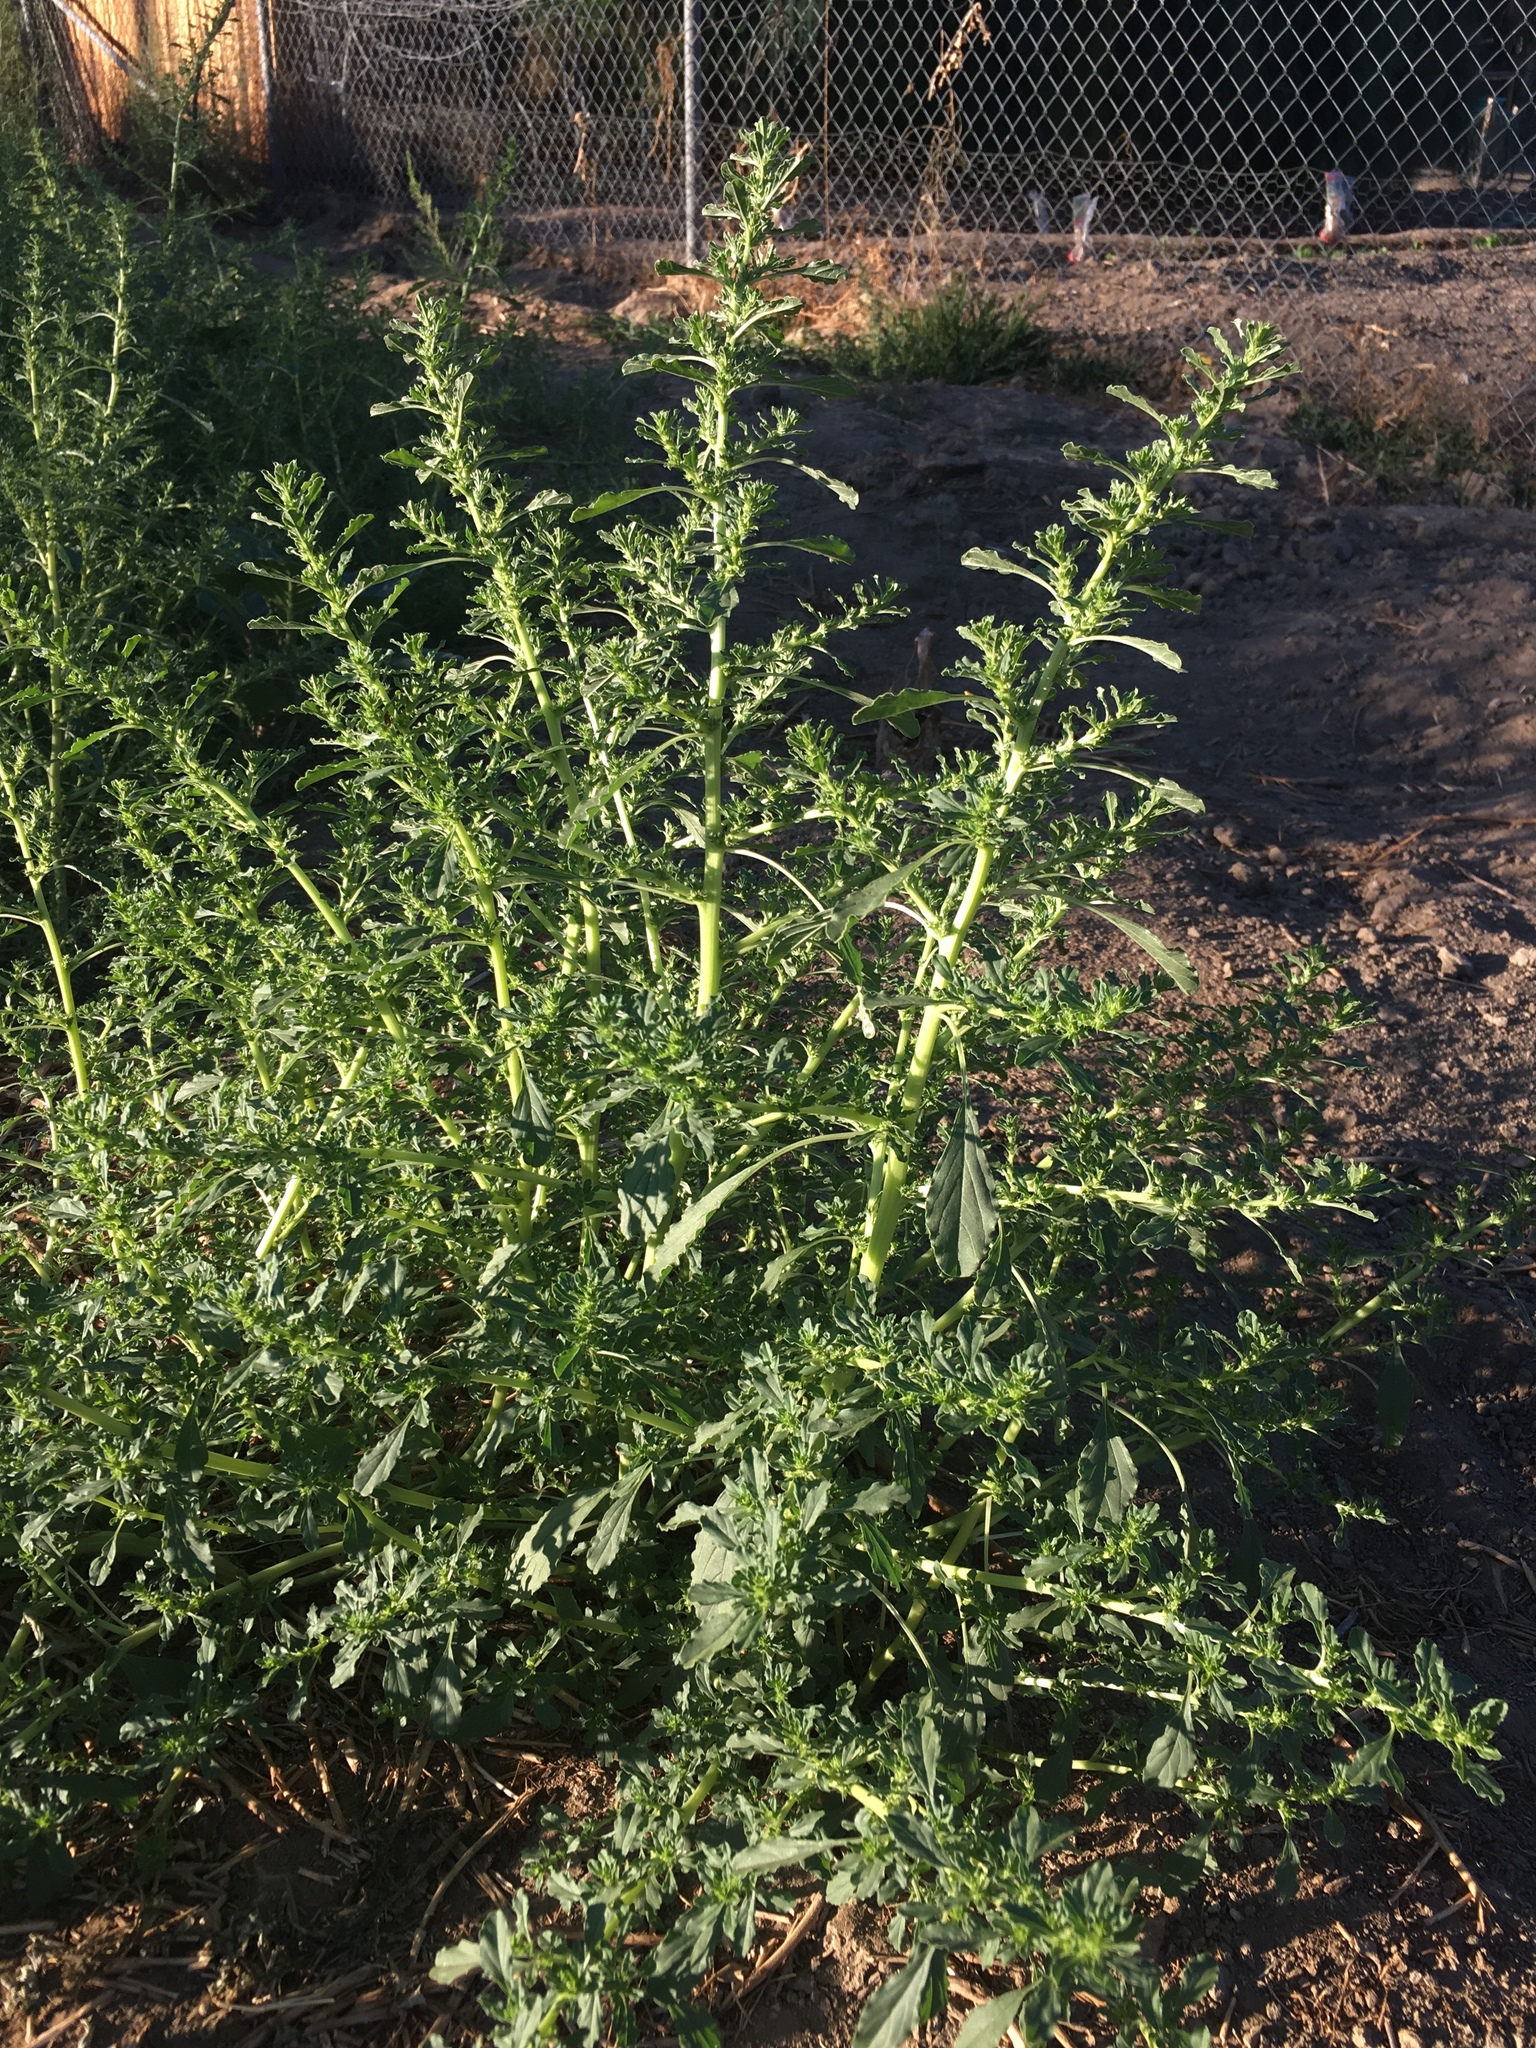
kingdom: Plantae
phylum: Tracheophyta
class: Magnoliopsida
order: Caryophyllales
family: Amaranthaceae
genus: Amaranthus
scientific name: Amaranthus albus
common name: White pigweed
